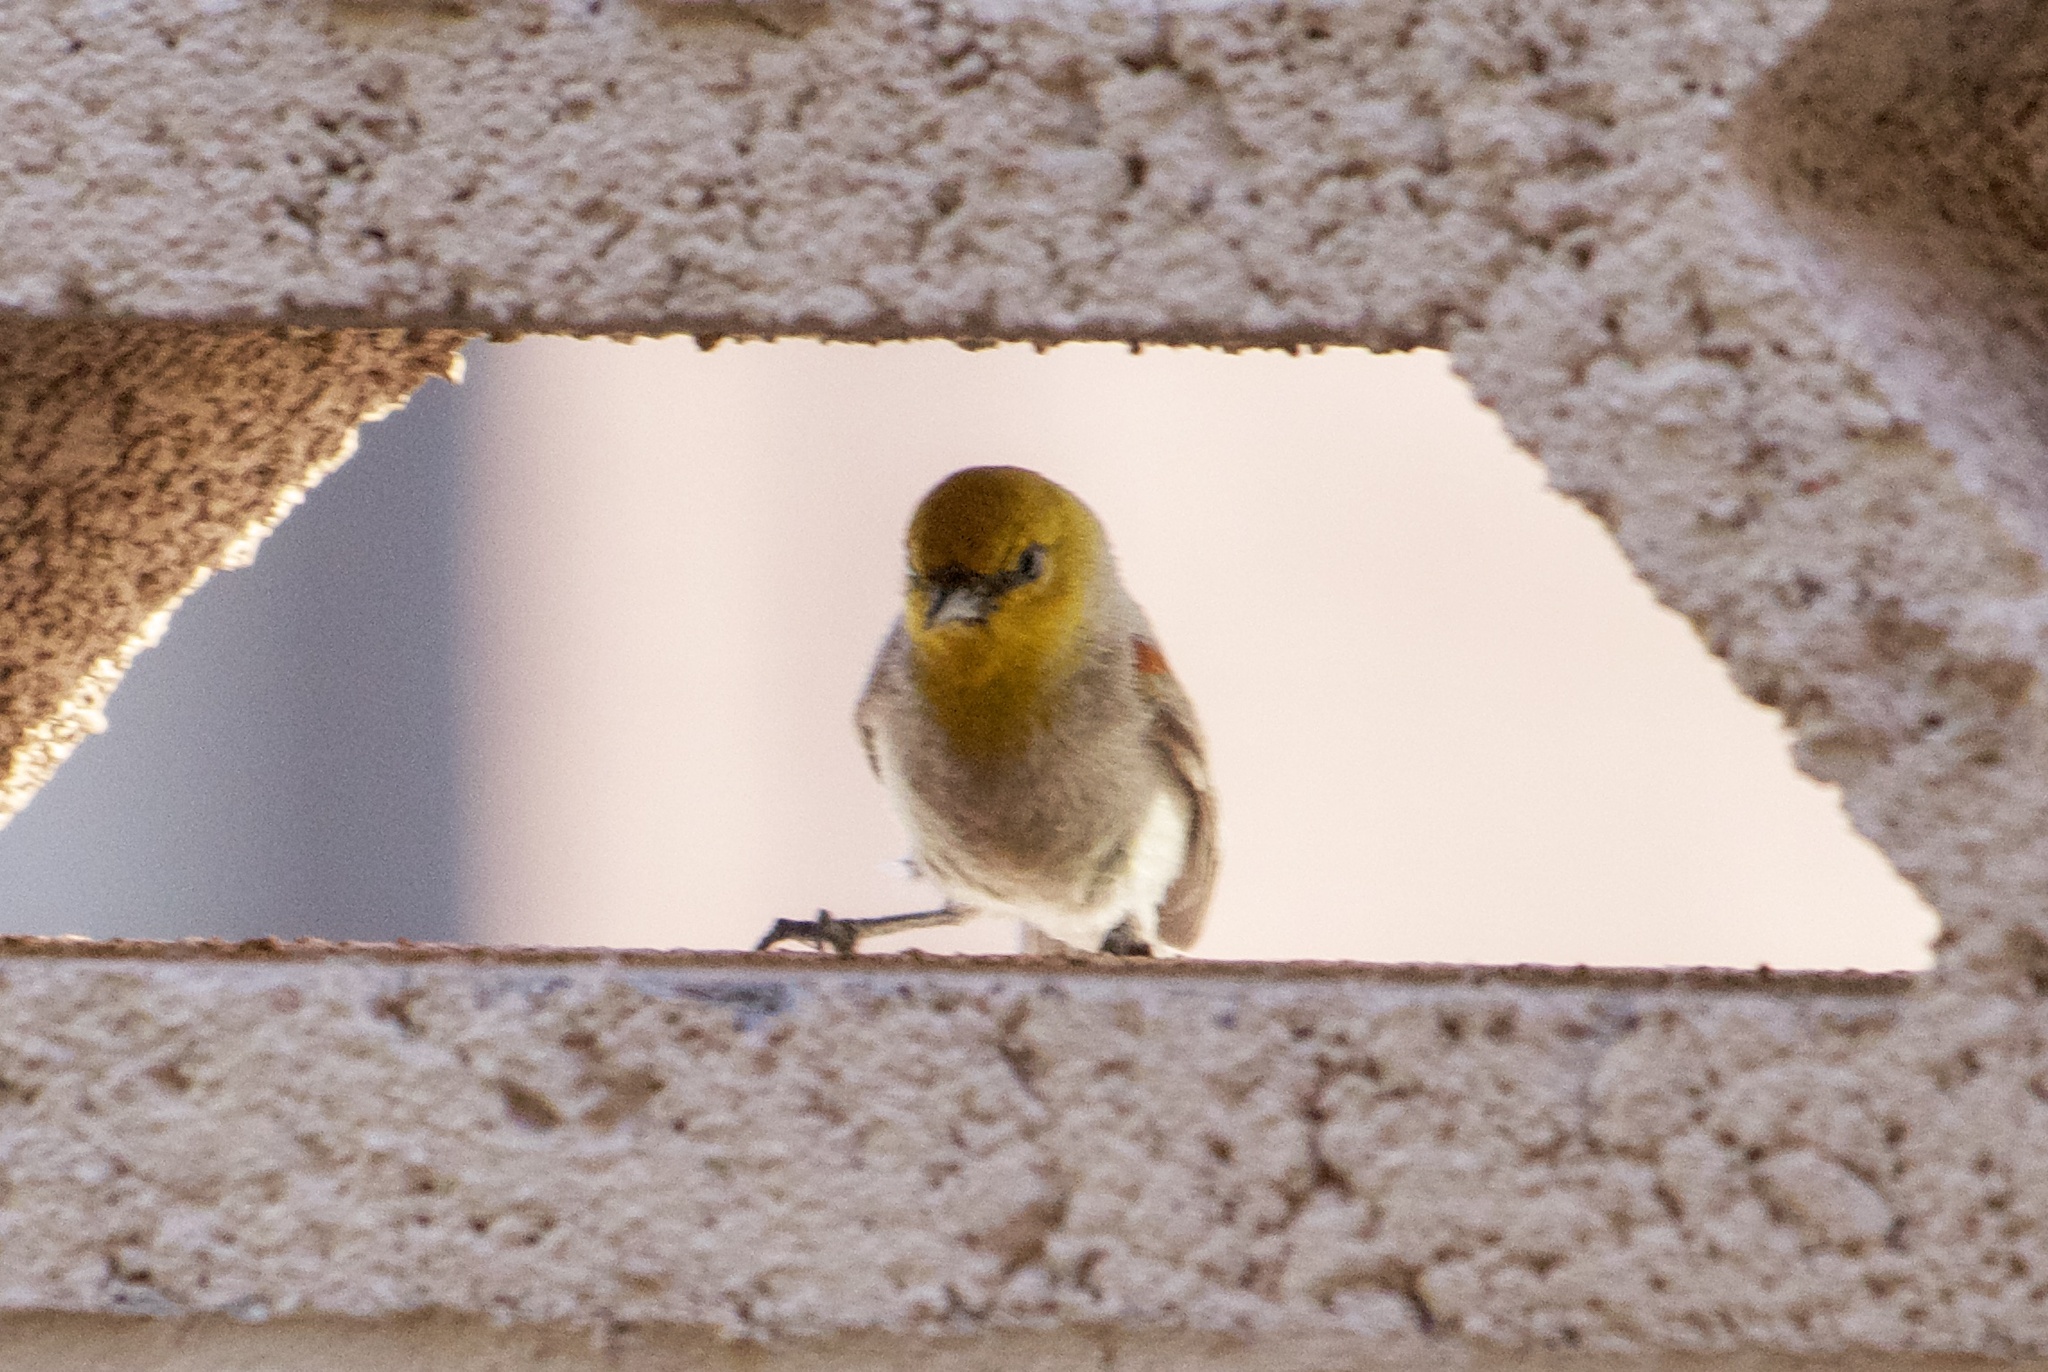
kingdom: Animalia
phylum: Chordata
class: Aves
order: Passeriformes
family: Remizidae
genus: Auriparus
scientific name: Auriparus flaviceps
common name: Verdin
